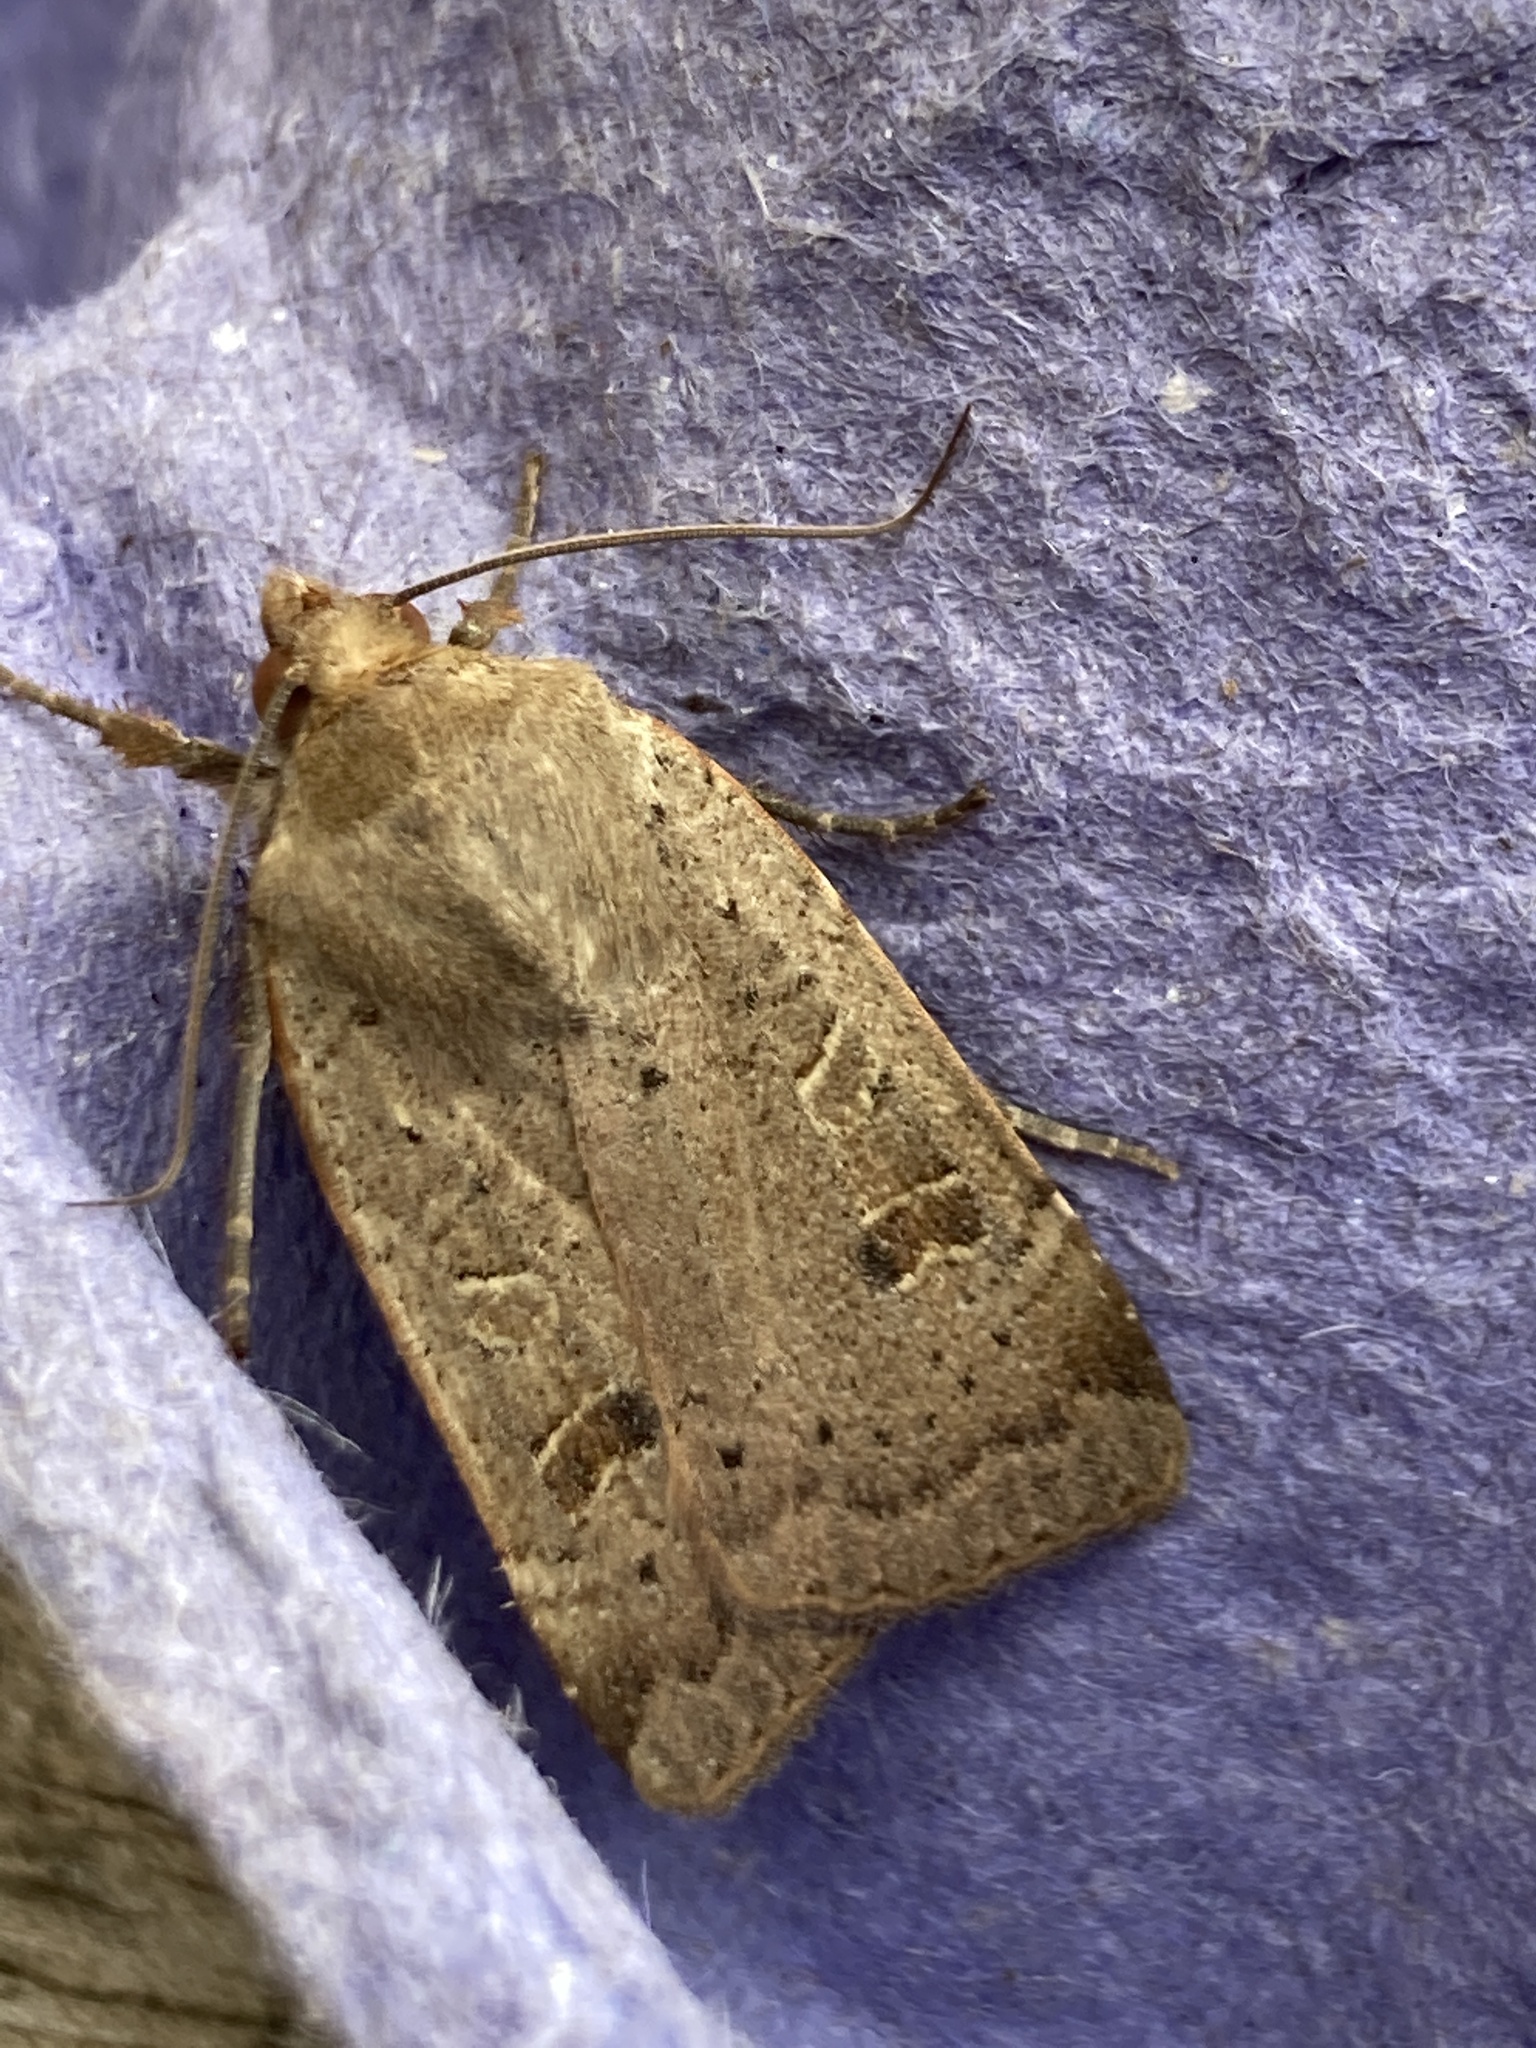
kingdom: Animalia
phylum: Arthropoda
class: Insecta
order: Lepidoptera
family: Noctuidae
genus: Noctua
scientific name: Noctua comes
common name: Lesser yellow underwing
